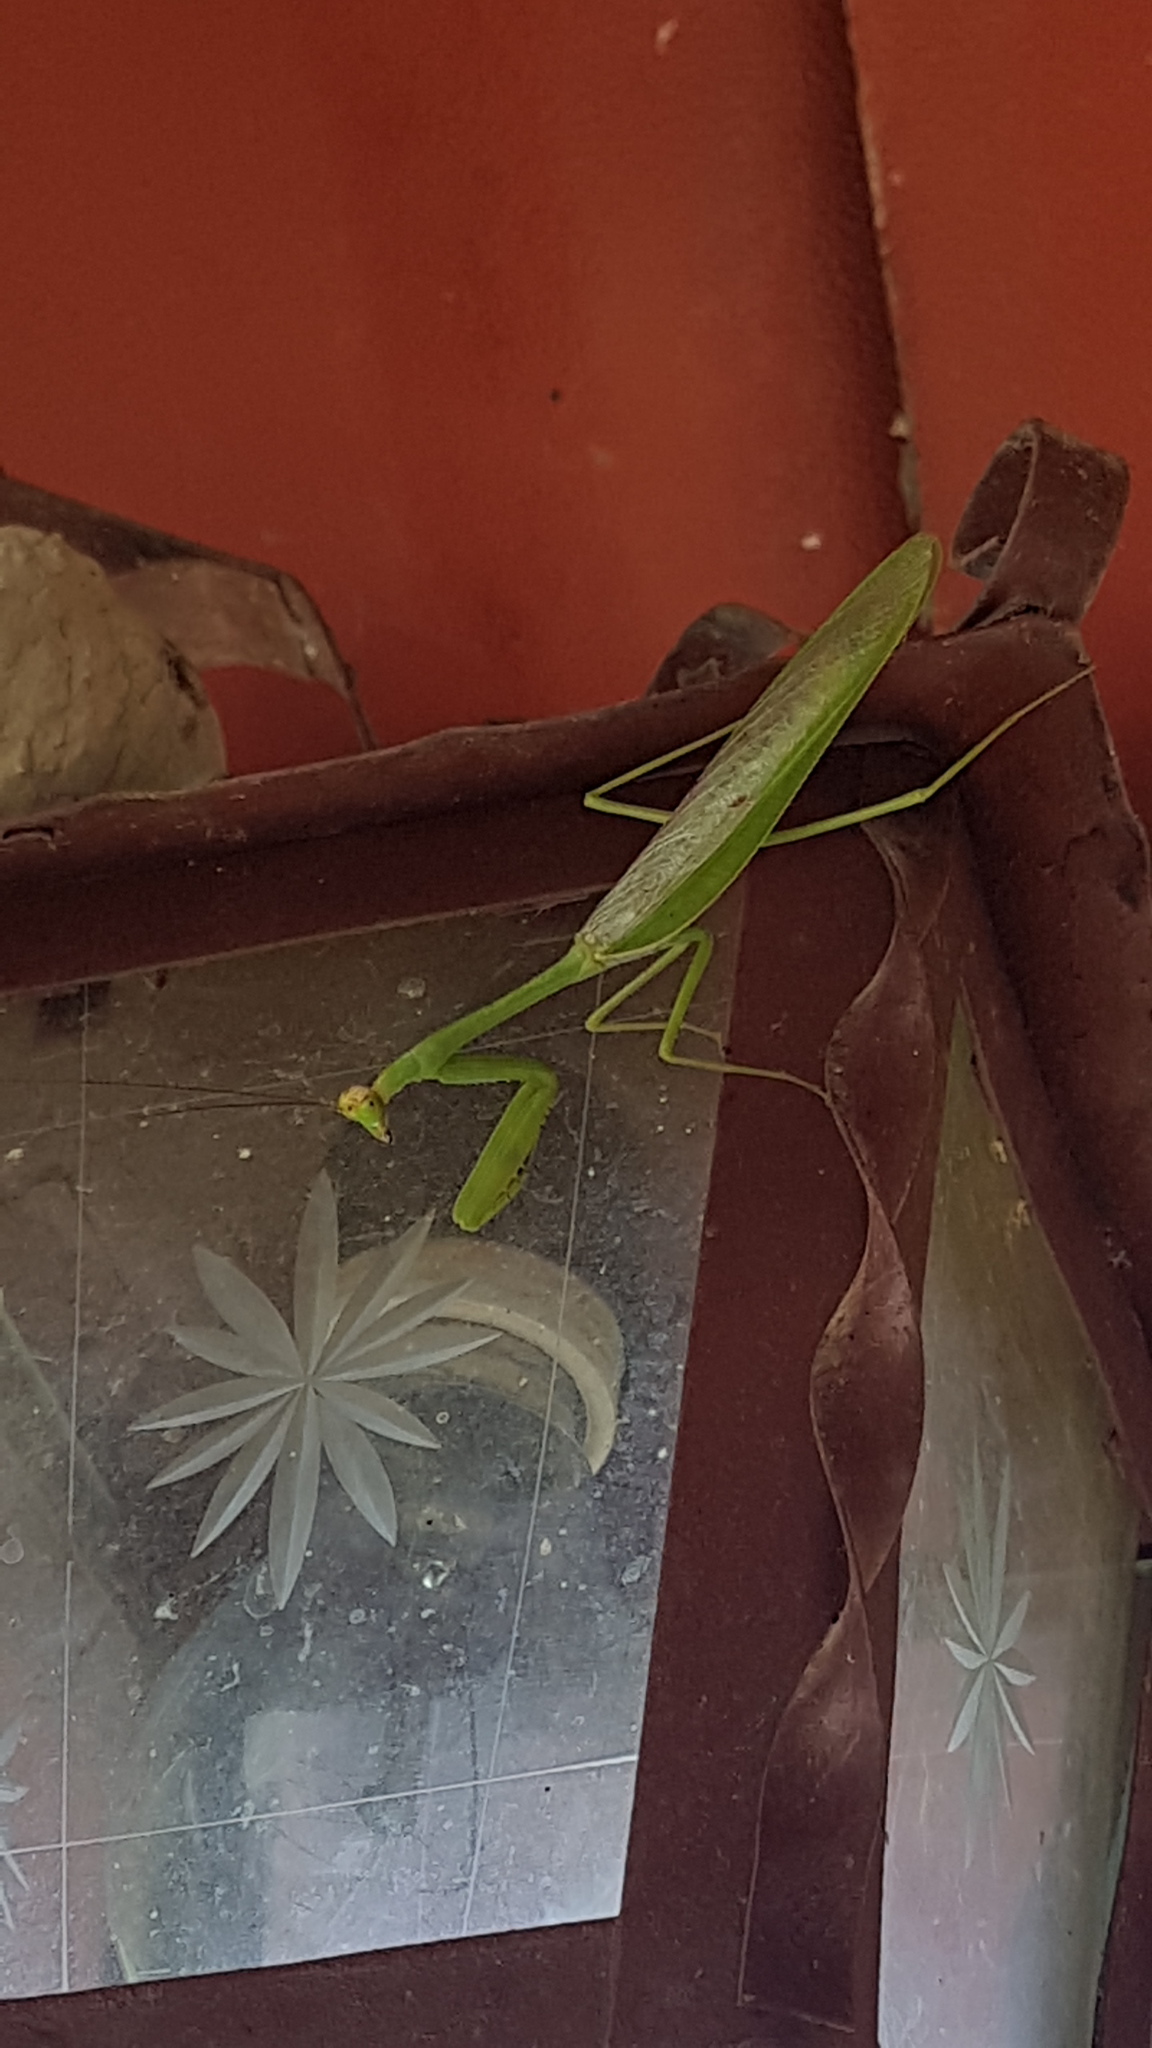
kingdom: Animalia
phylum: Arthropoda
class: Insecta
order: Mantodea
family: Mantidae
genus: Stagmatoptera
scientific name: Stagmatoptera septentrionalis
